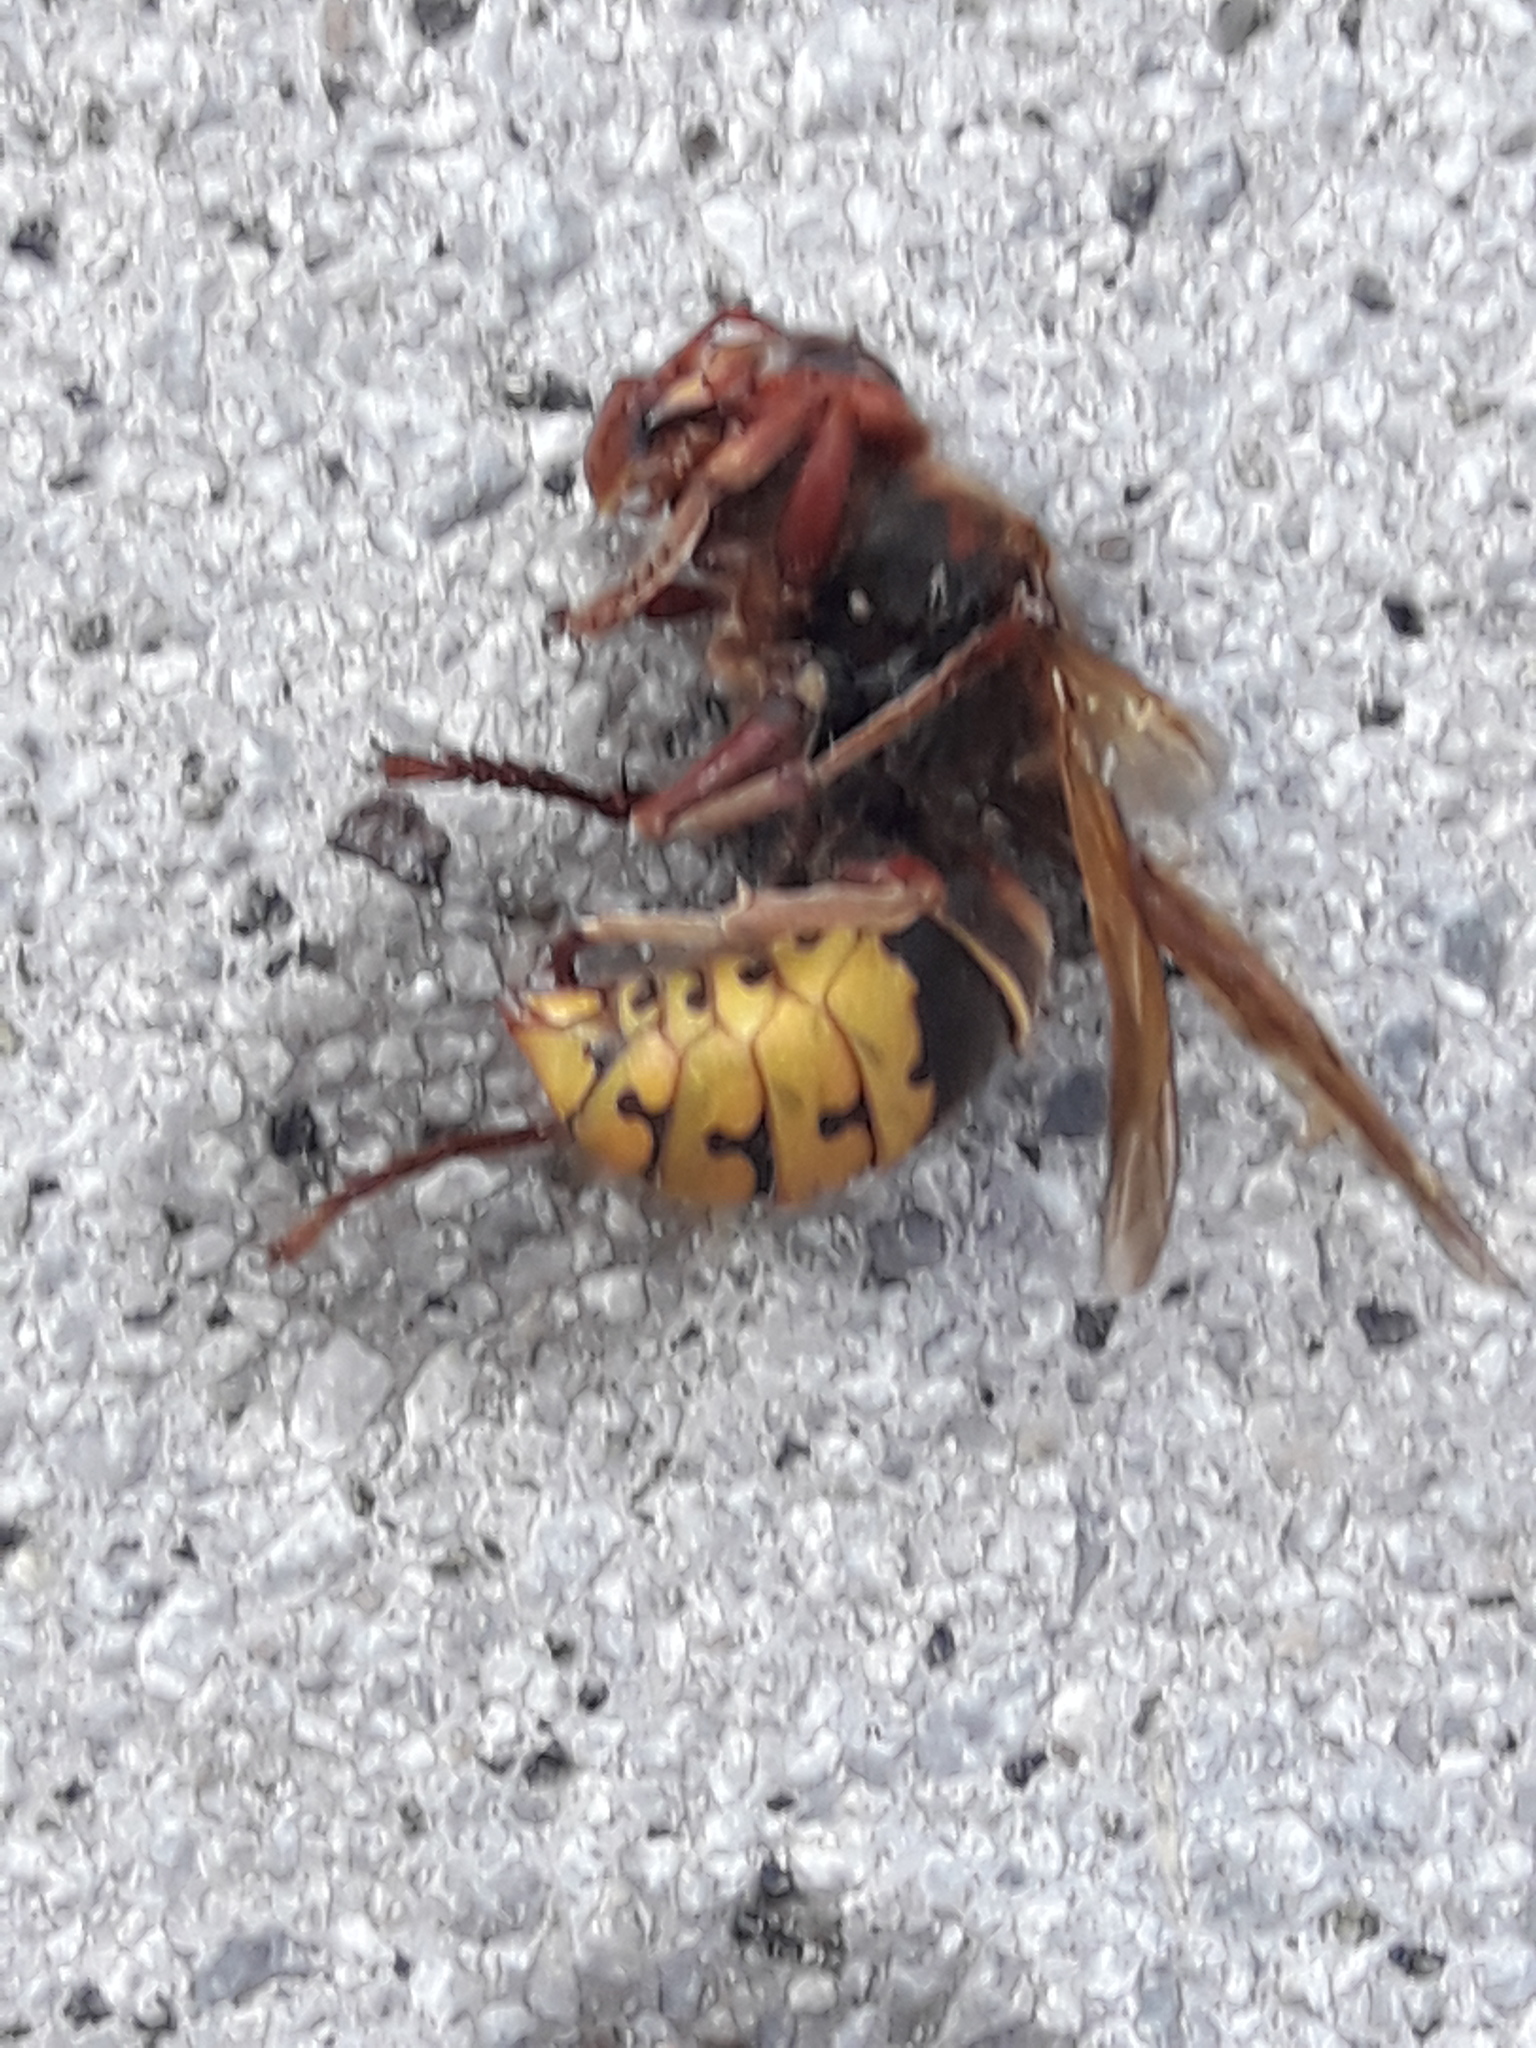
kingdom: Animalia
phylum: Arthropoda
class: Insecta
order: Hymenoptera
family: Vespidae
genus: Vespa
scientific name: Vespa crabro
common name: Hornet
